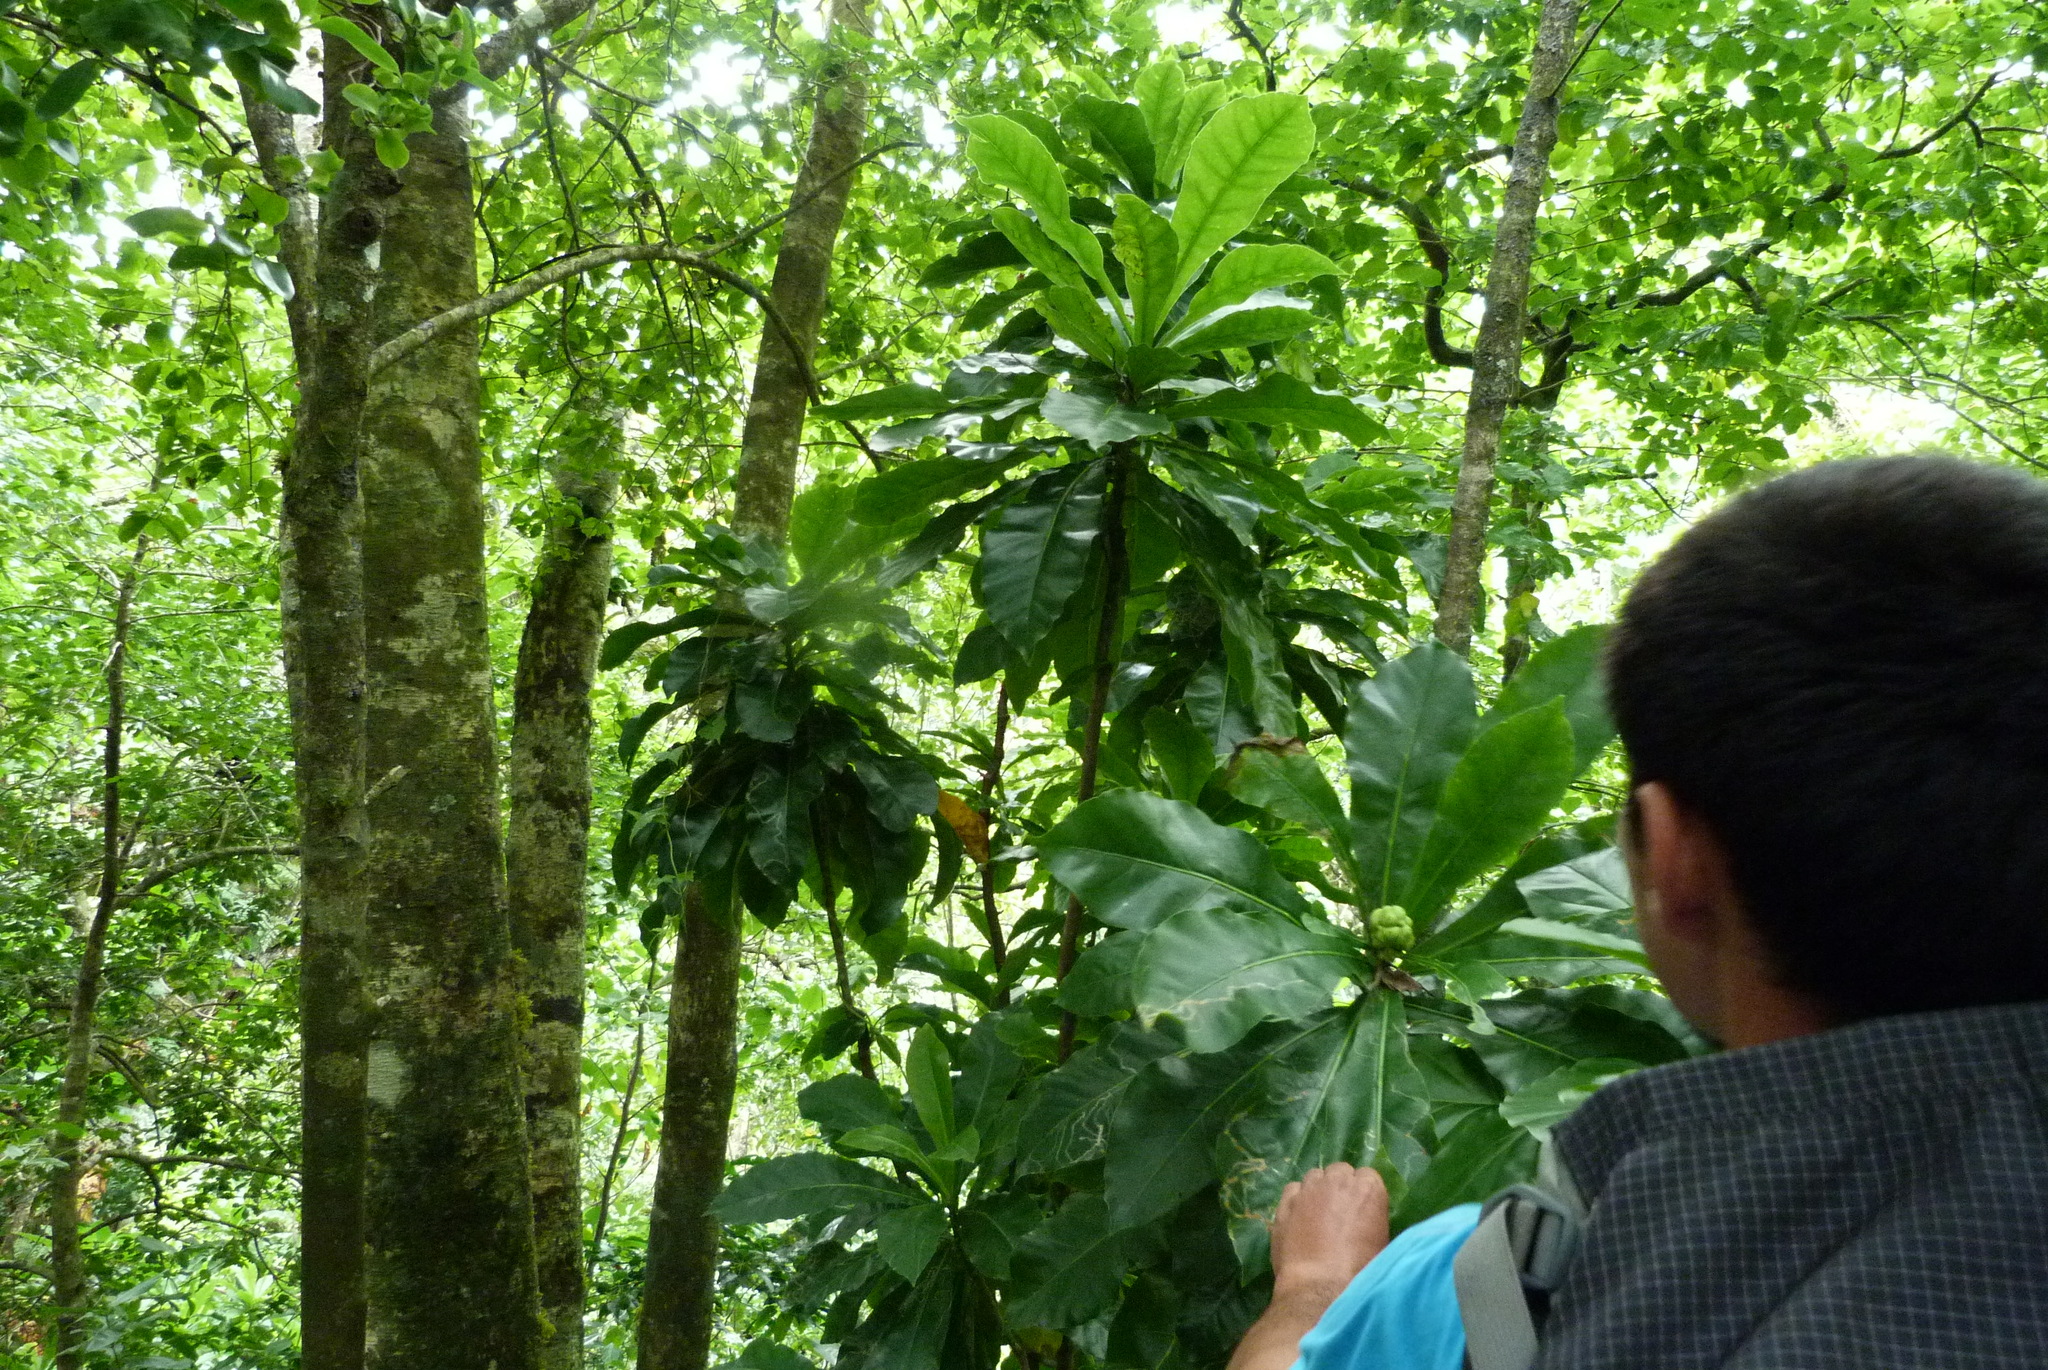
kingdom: Plantae
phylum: Tracheophyta
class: Magnoliopsida
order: Apiales
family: Araliaceae
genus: Meryta
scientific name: Meryta pauciflora
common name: Rarotonga meryta
